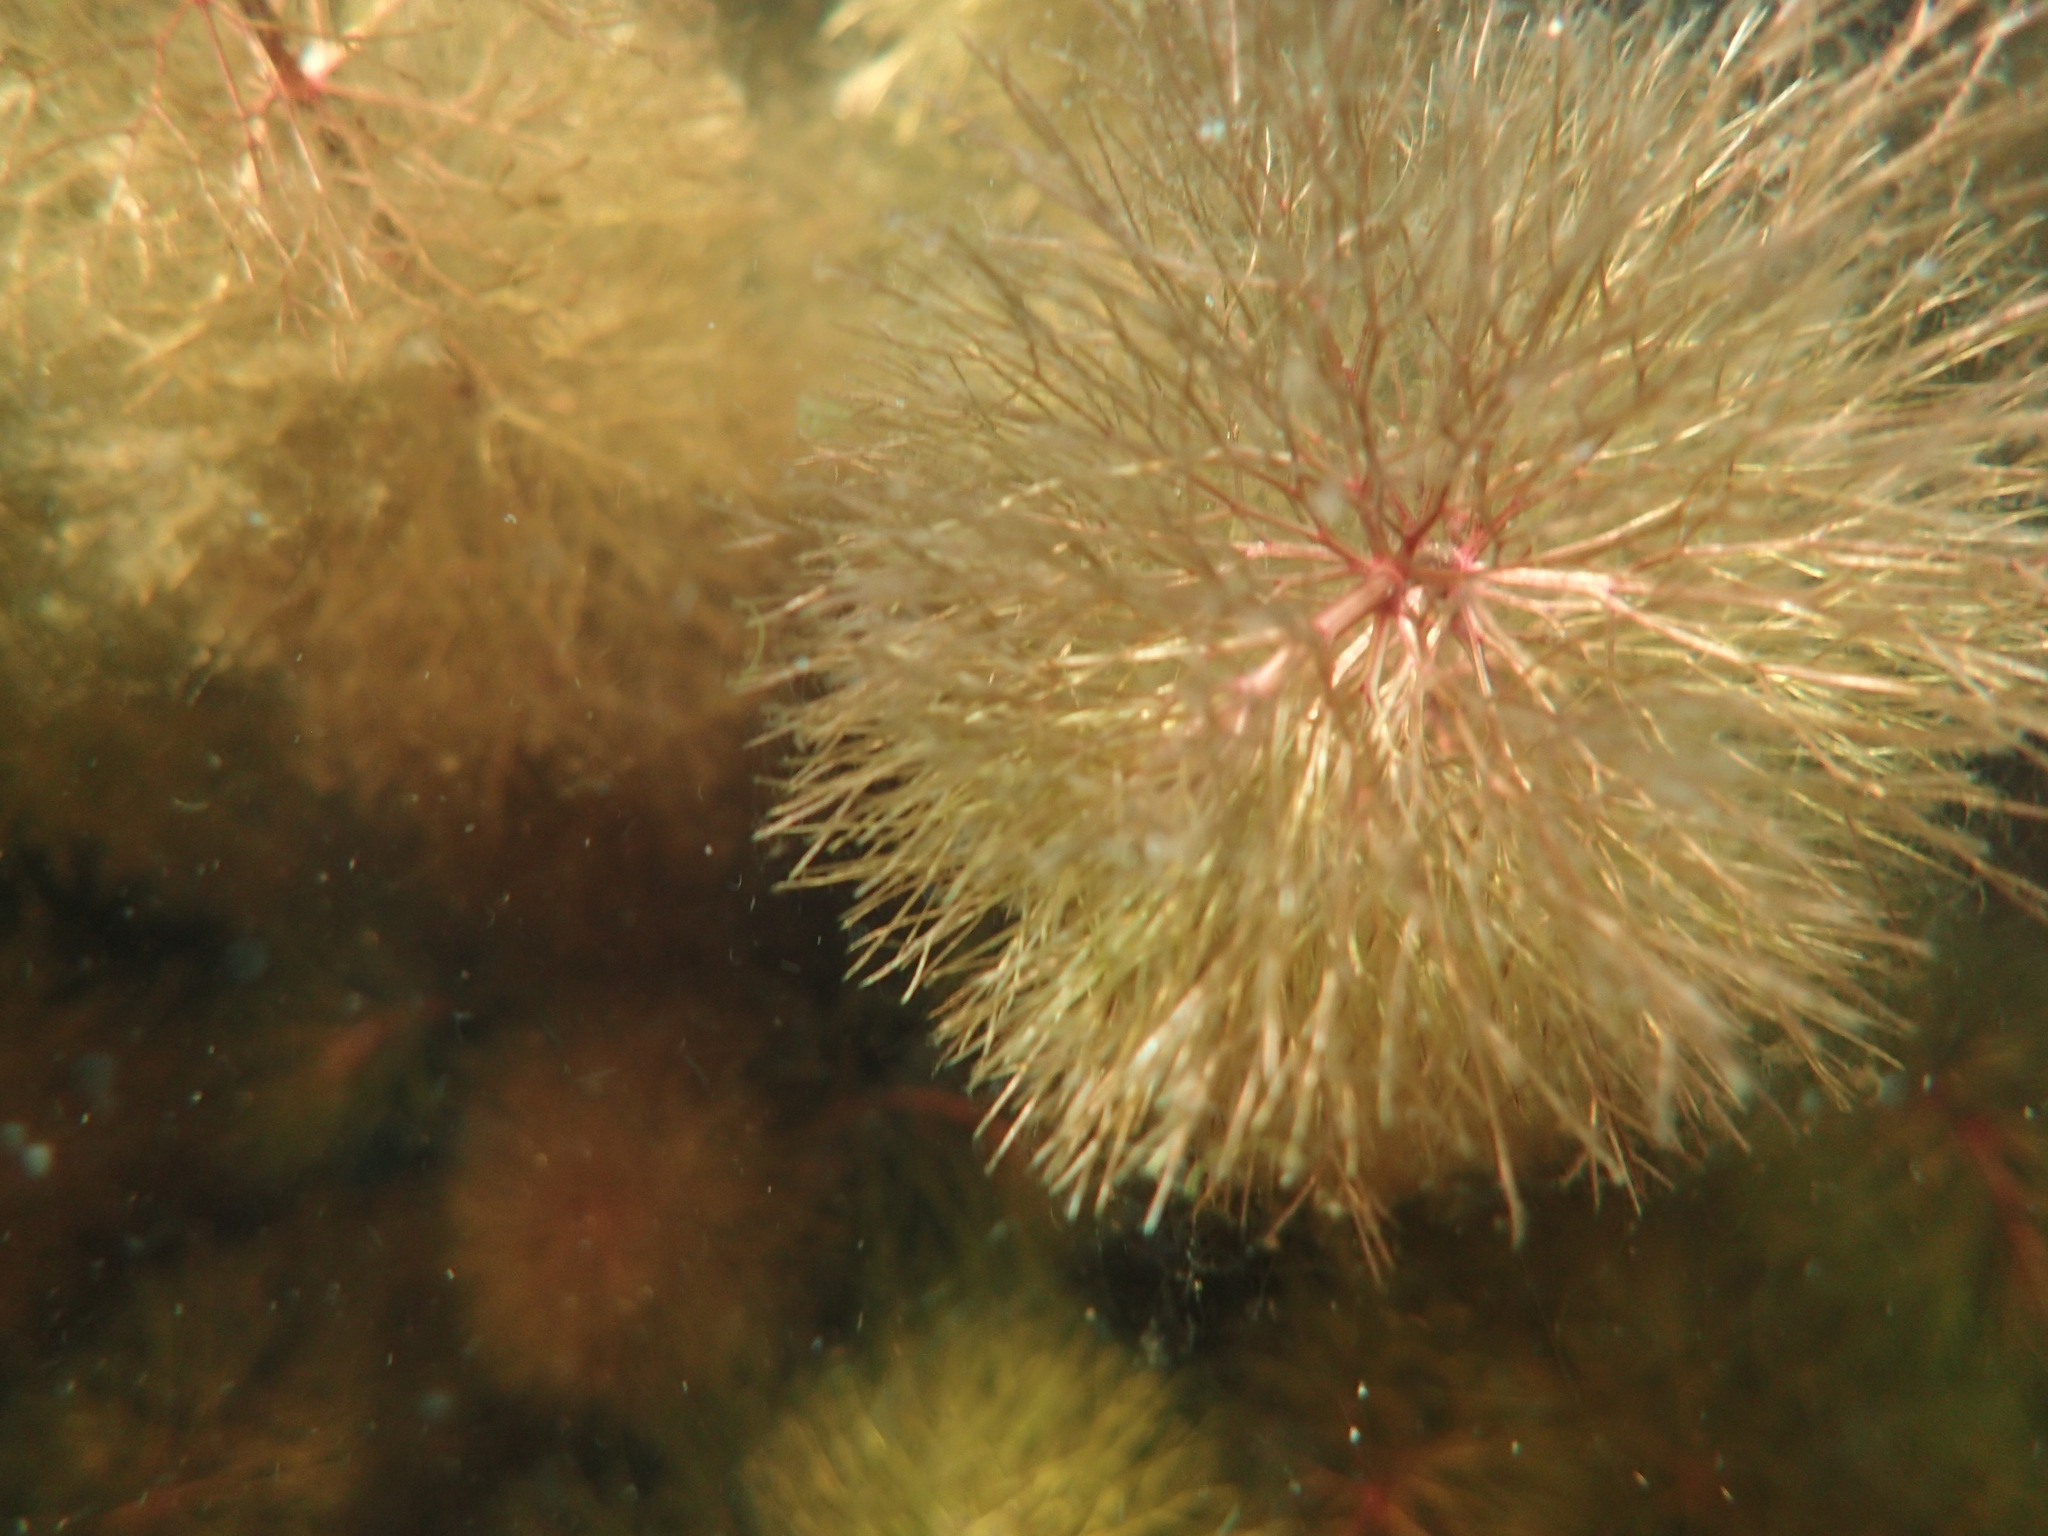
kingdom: Plantae
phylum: Tracheophyta
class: Magnoliopsida
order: Asterales
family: Asteraceae
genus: Bidens
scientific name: Bidens beckii
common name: Beck's beggarticks
